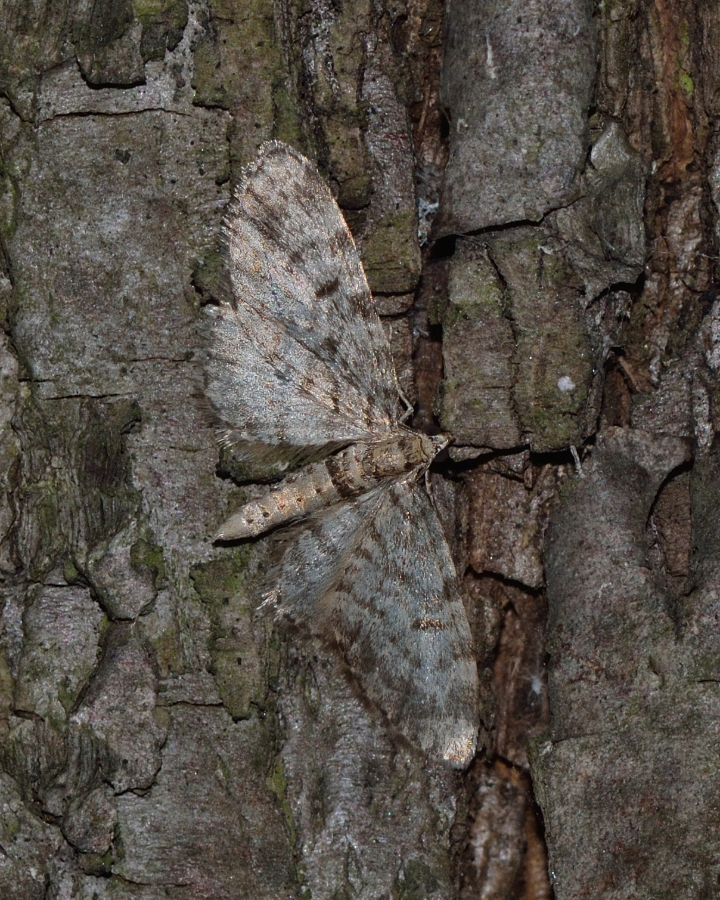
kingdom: Animalia
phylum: Arthropoda
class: Insecta
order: Lepidoptera
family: Geometridae
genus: Eupithecia
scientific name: Eupithecia tantillaria
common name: Dwarf pug
